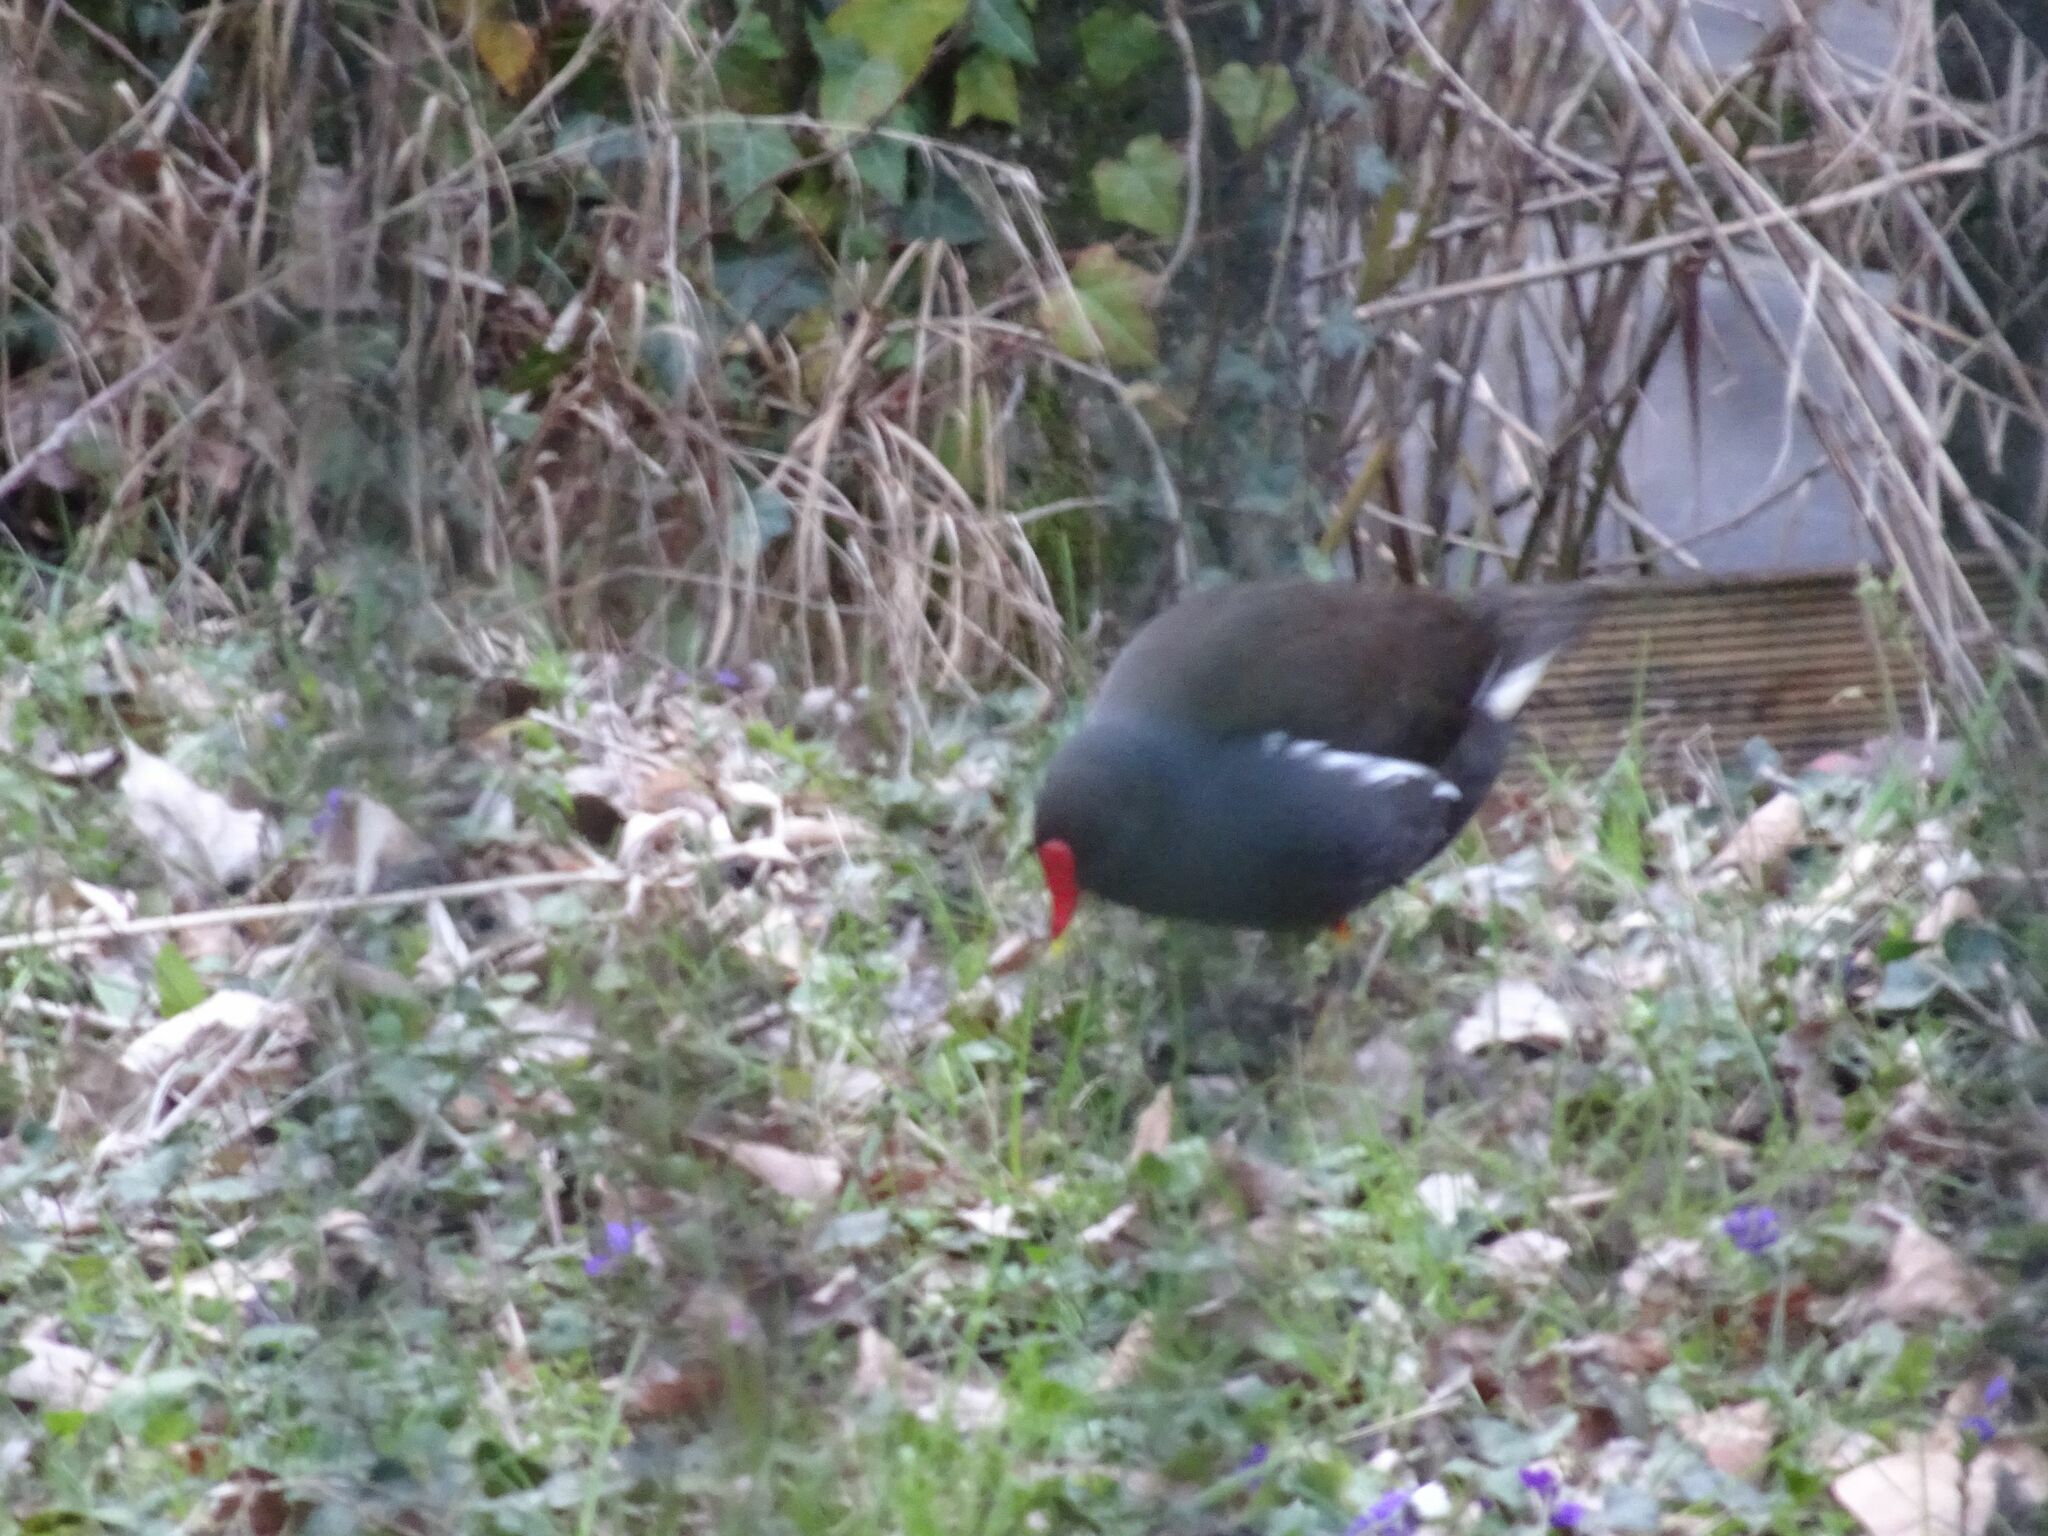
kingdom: Animalia
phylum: Chordata
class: Aves
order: Gruiformes
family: Rallidae
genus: Gallinula
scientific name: Gallinula chloropus
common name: Common moorhen
